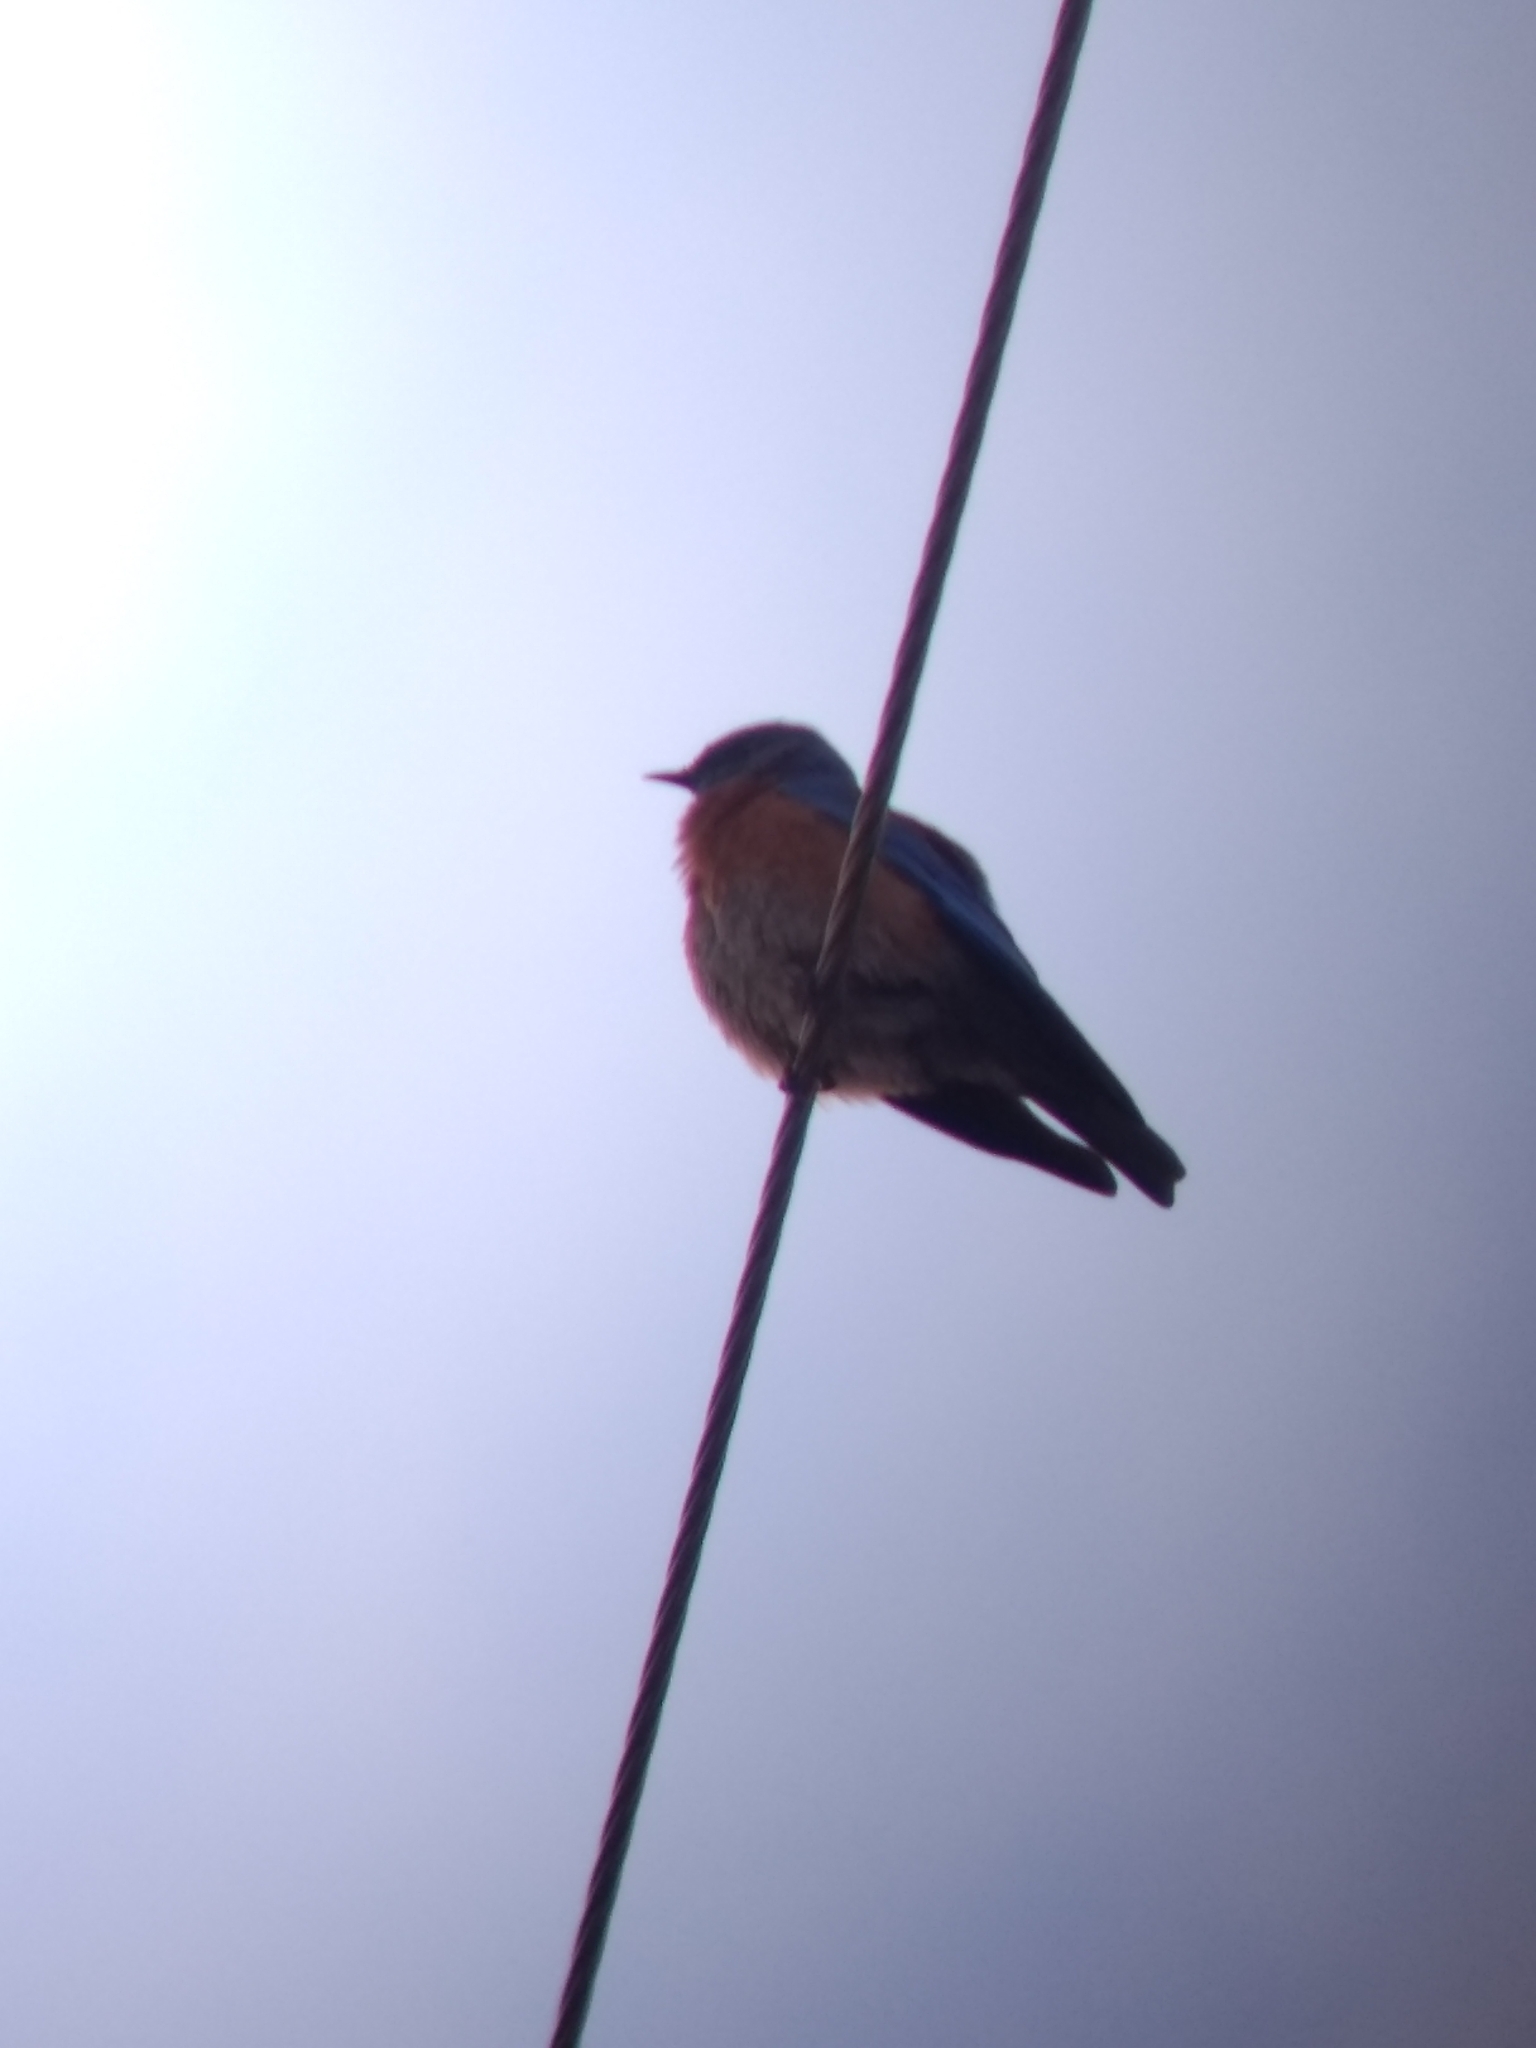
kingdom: Animalia
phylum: Chordata
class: Aves
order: Passeriformes
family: Turdidae
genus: Sialia
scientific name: Sialia mexicana
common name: Western bluebird
